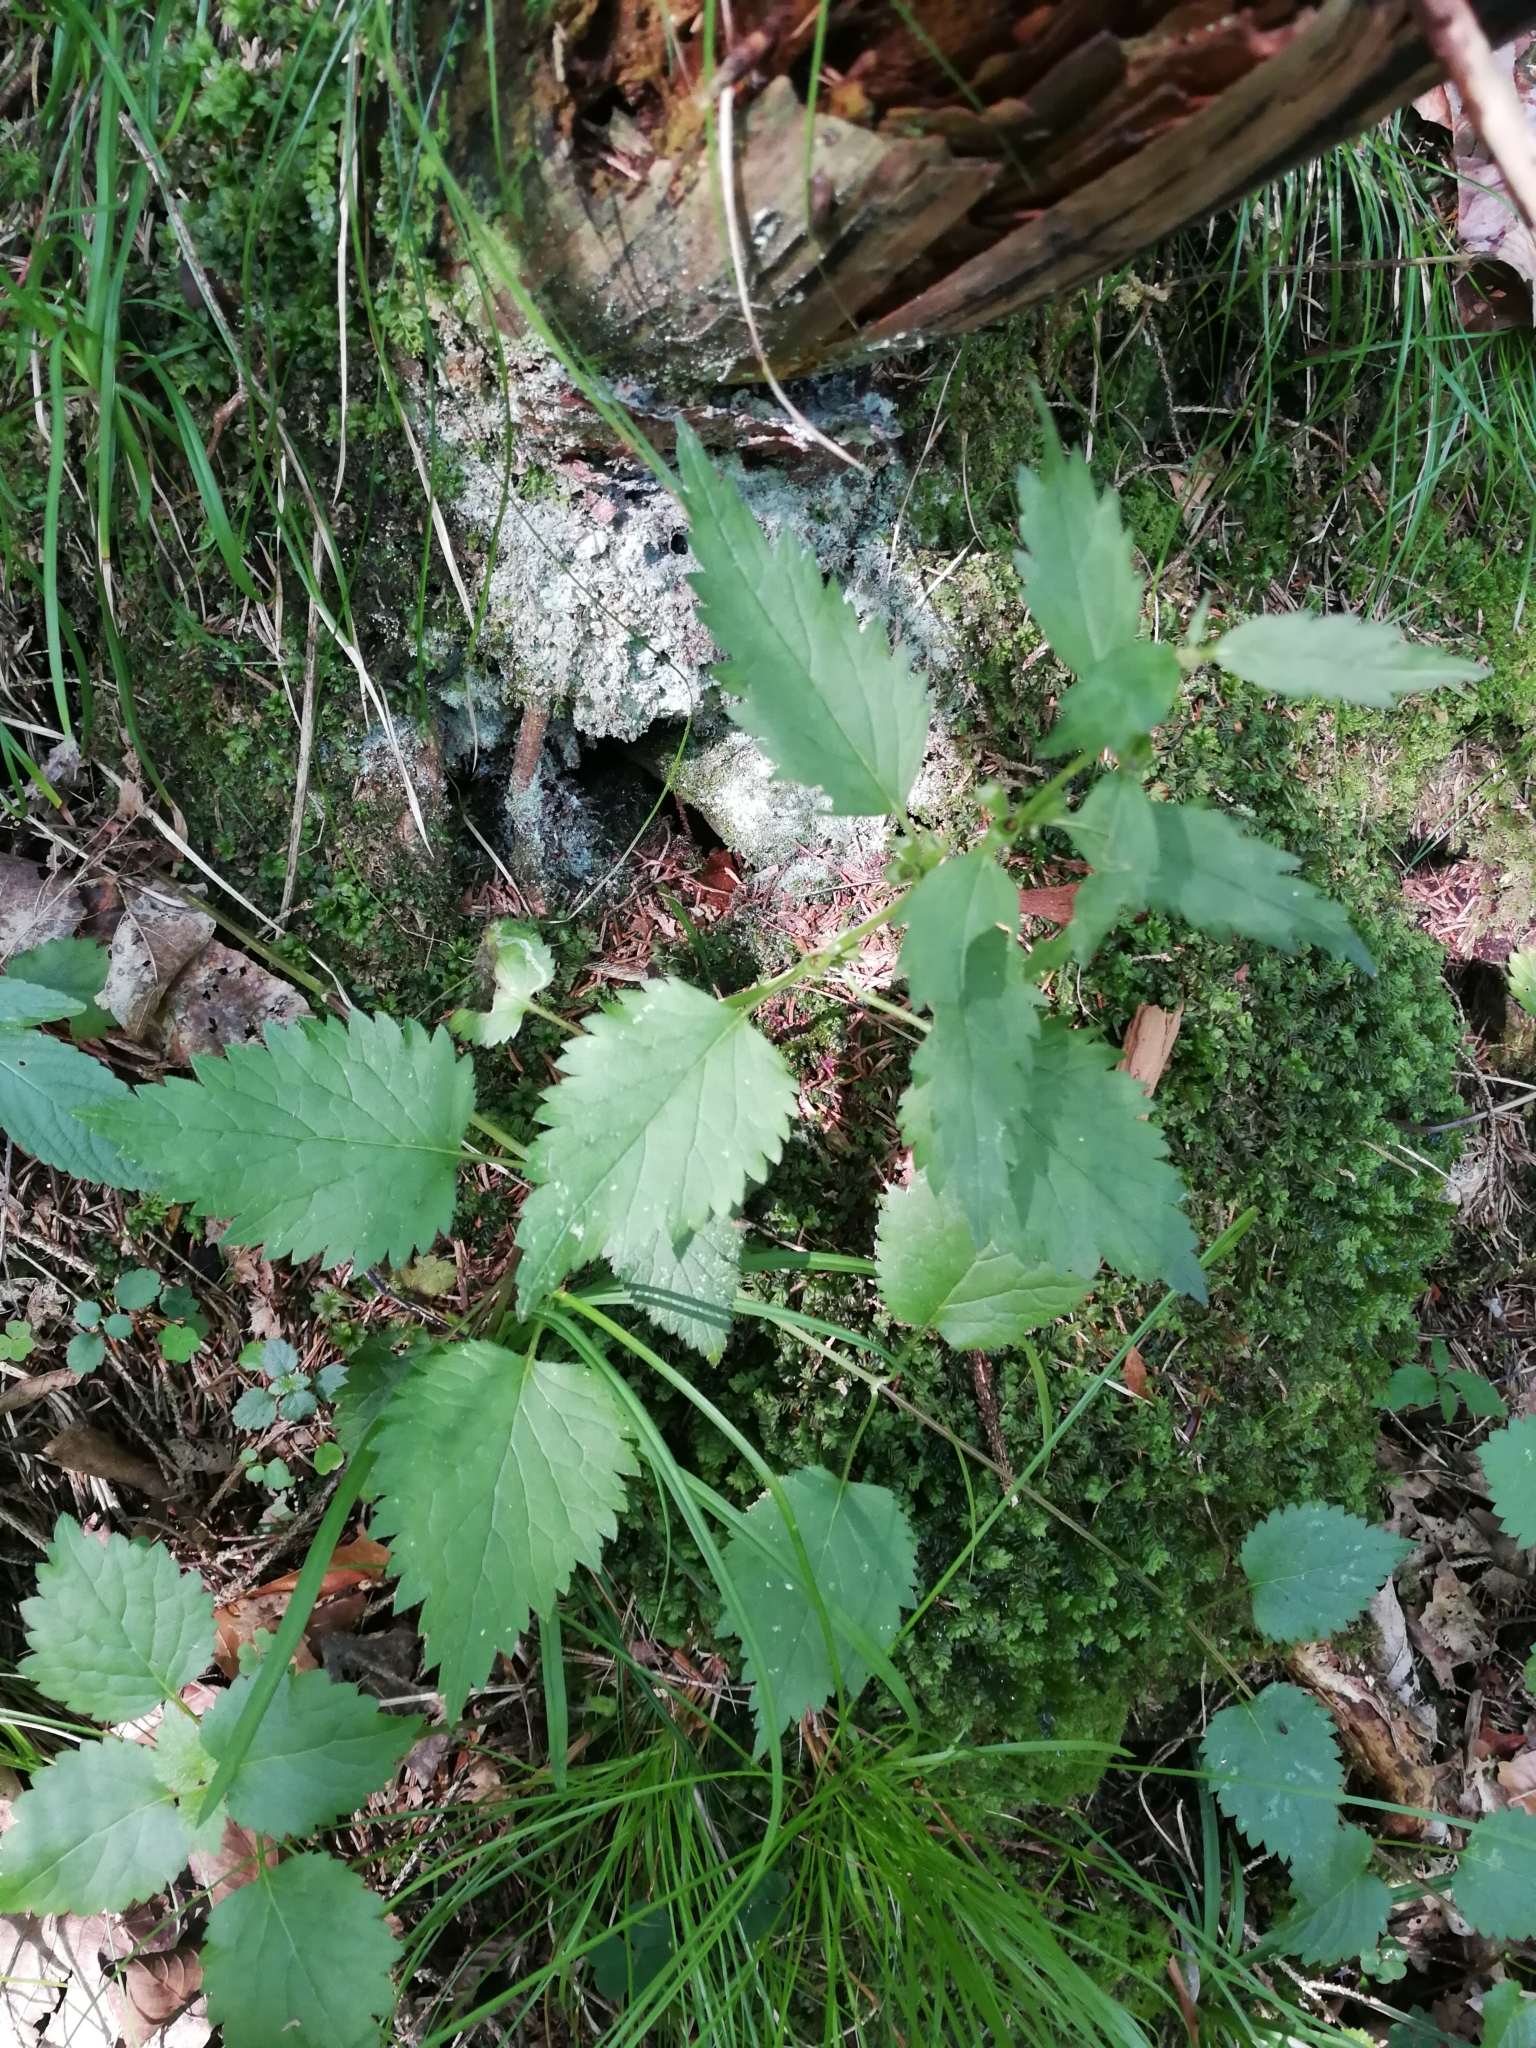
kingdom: Plantae
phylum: Tracheophyta
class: Magnoliopsida
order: Rosales
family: Urticaceae
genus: Urtica
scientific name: Urtica dioica
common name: Common nettle
